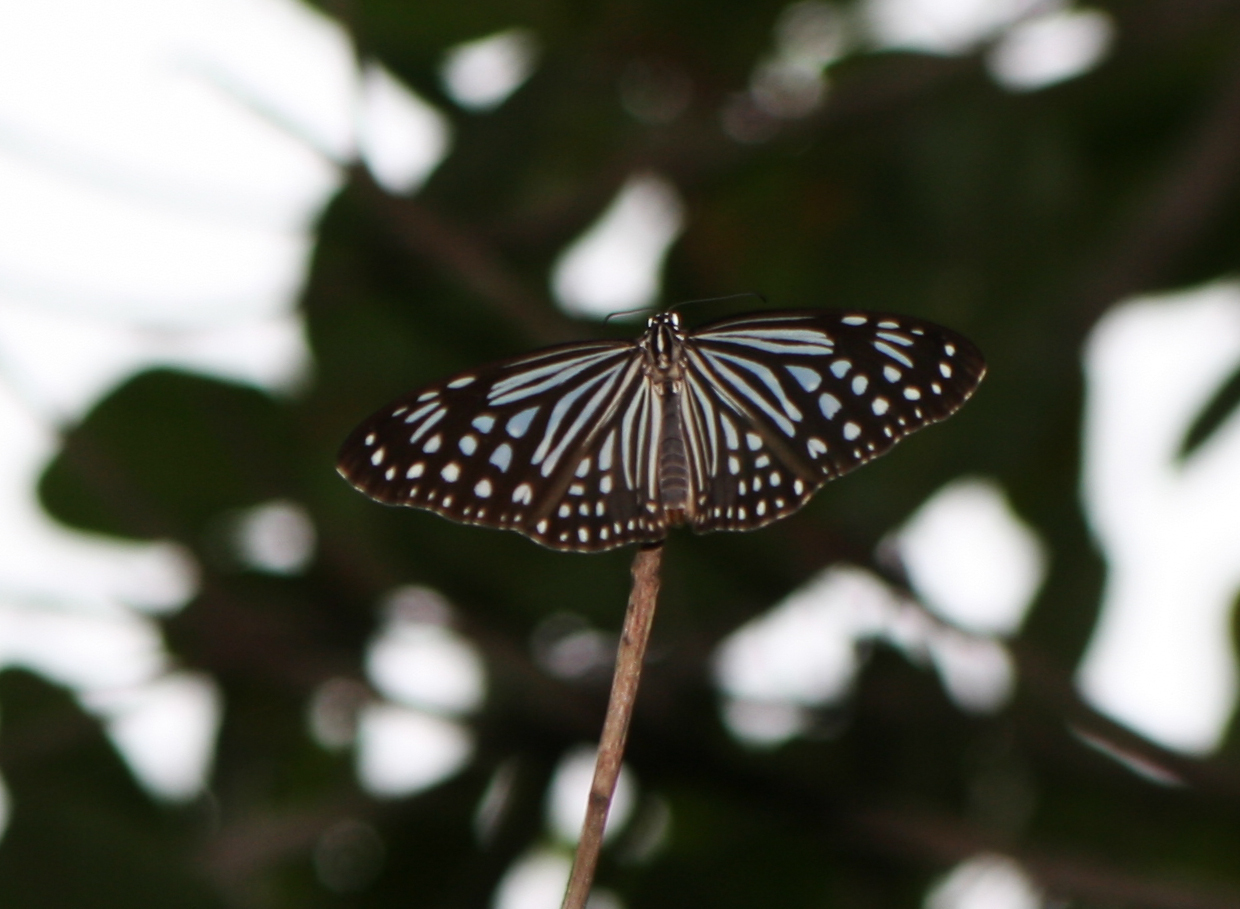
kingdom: Animalia
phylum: Arthropoda
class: Insecta
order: Lepidoptera
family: Nymphalidae
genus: Parantica
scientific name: Parantica agleoides
